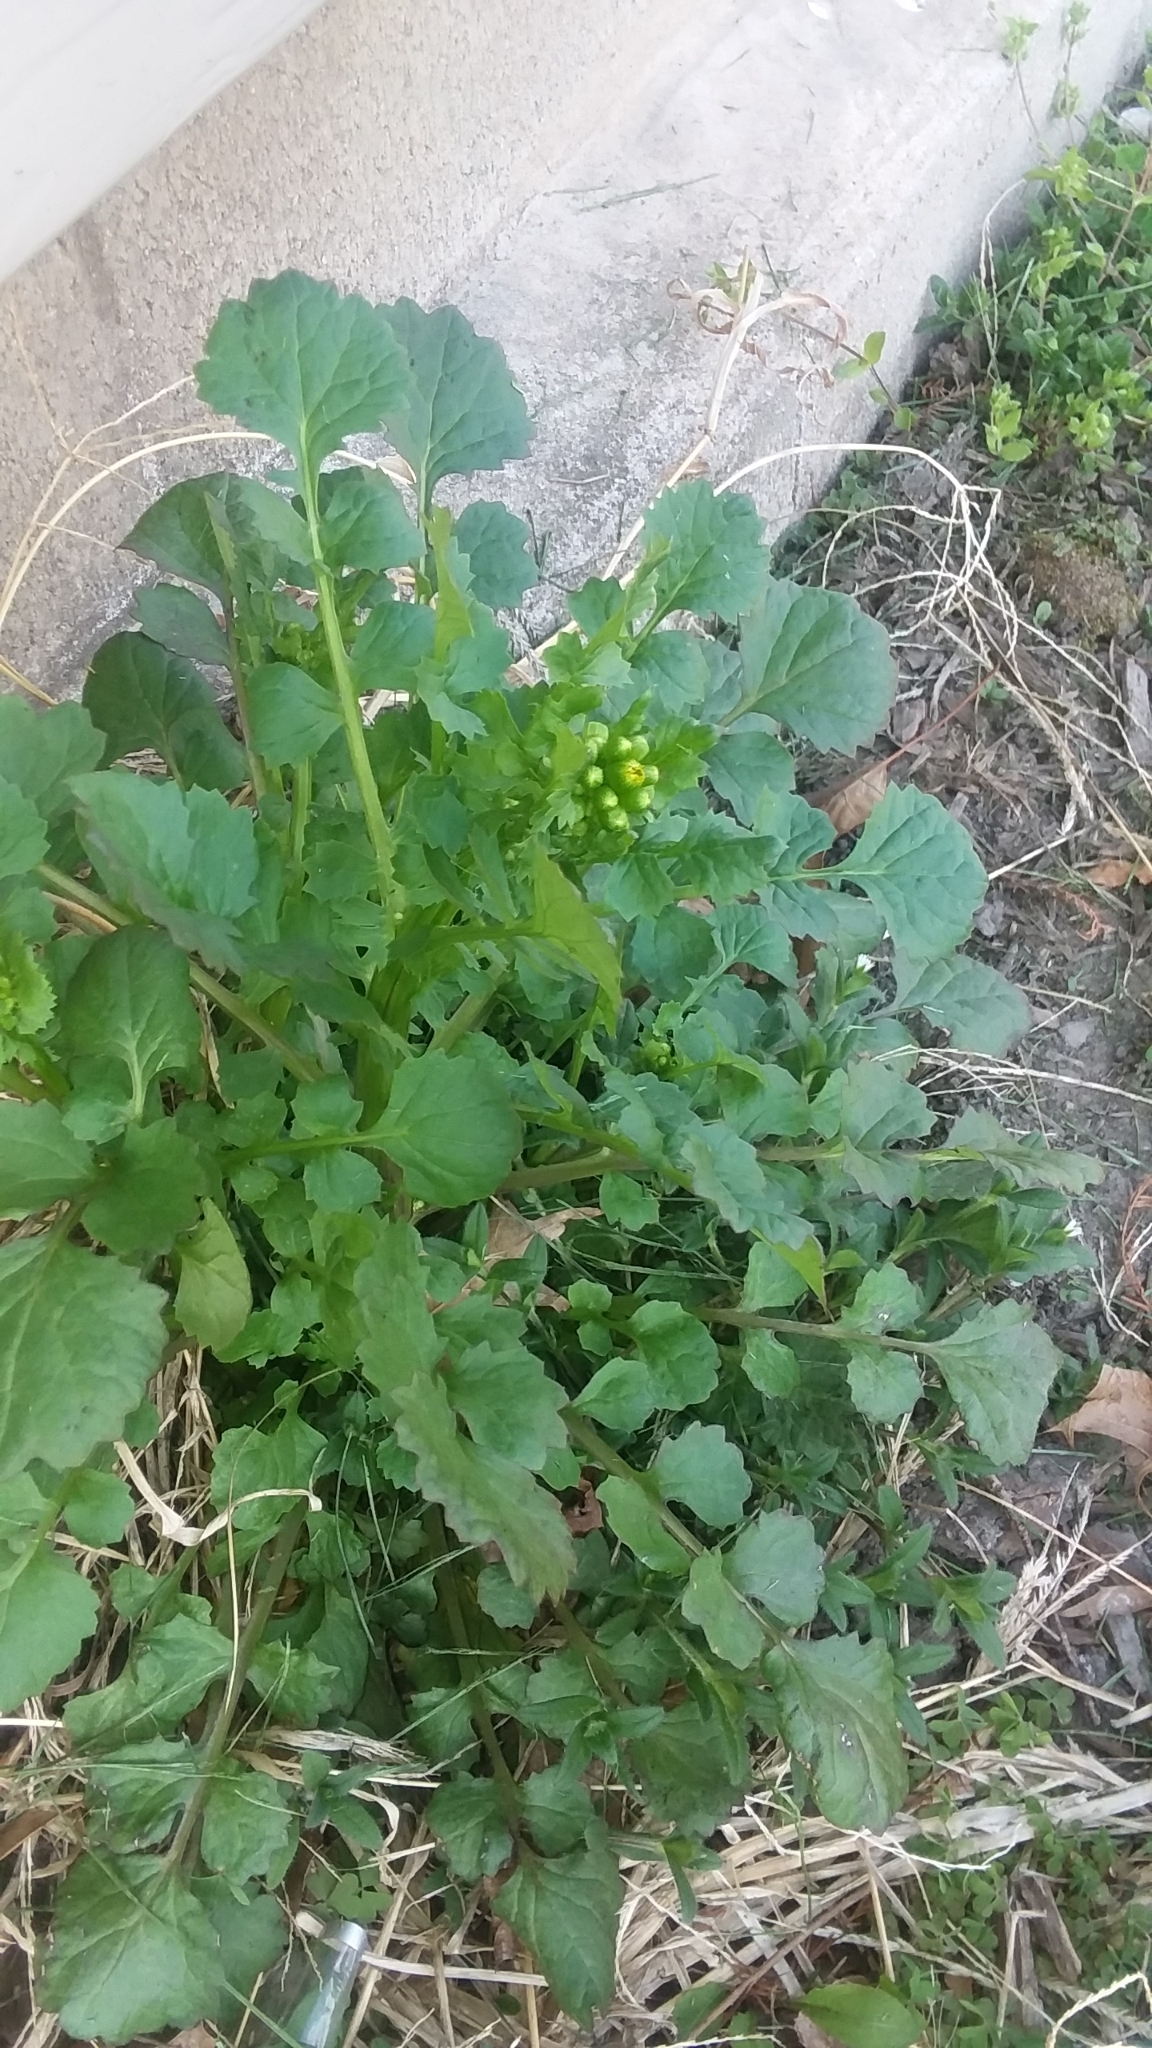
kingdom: Plantae
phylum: Tracheophyta
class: Magnoliopsida
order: Asterales
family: Asteraceae
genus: Packera
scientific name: Packera glabella
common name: Butterweed
